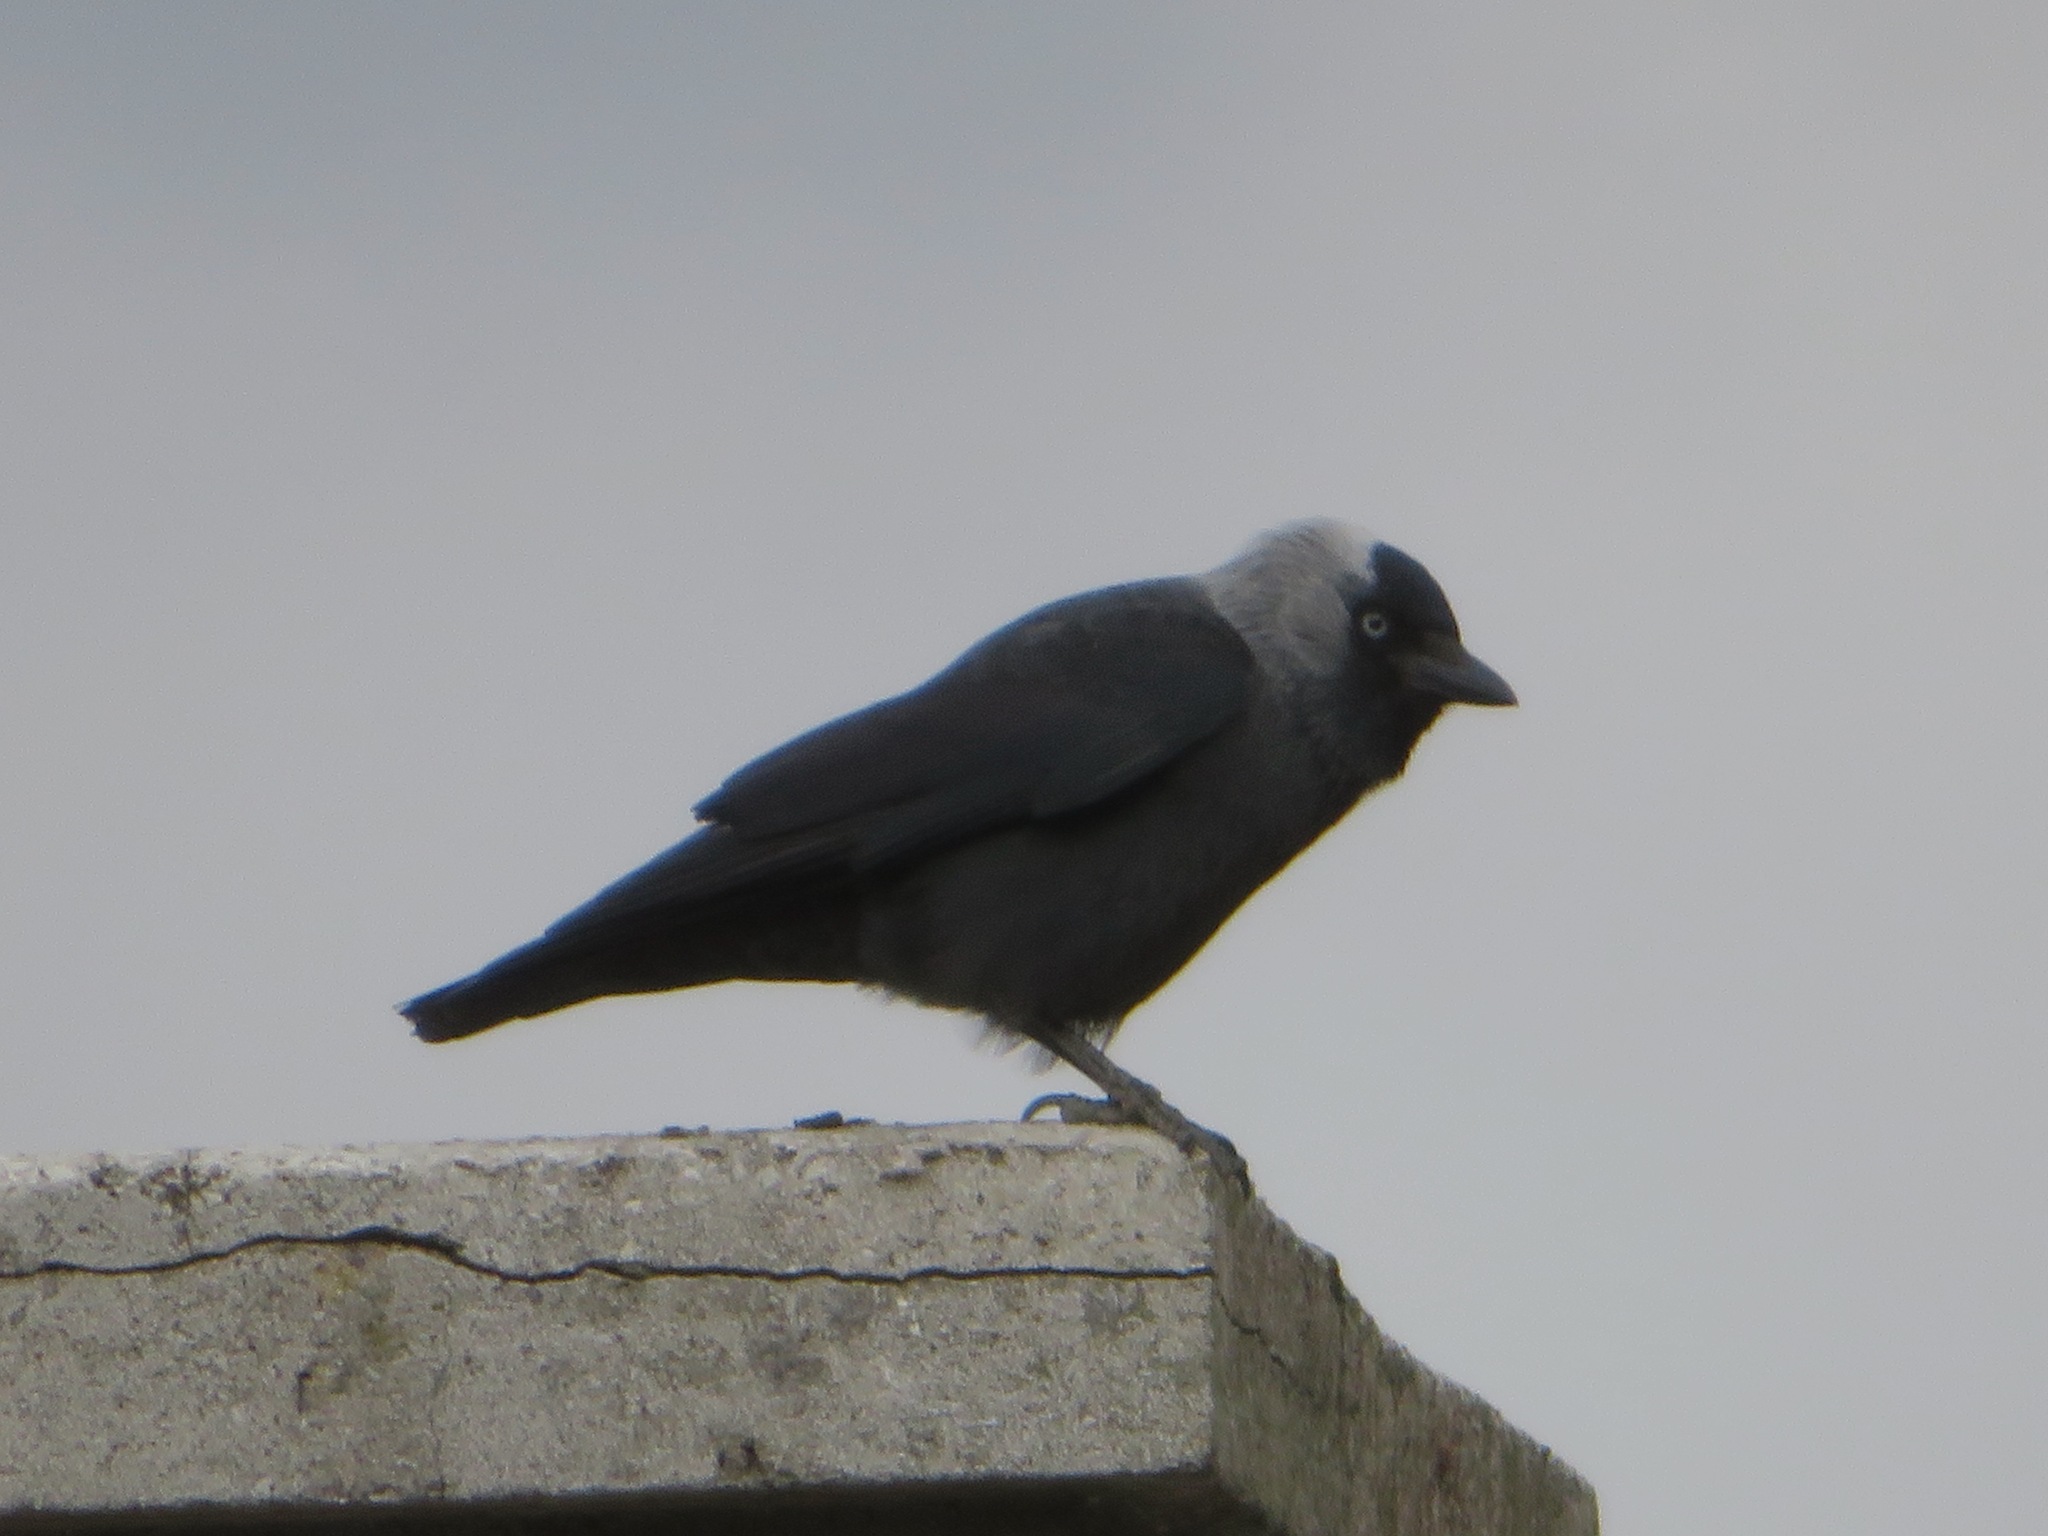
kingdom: Animalia
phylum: Chordata
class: Aves
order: Passeriformes
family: Corvidae
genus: Coloeus
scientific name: Coloeus monedula
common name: Western jackdaw
